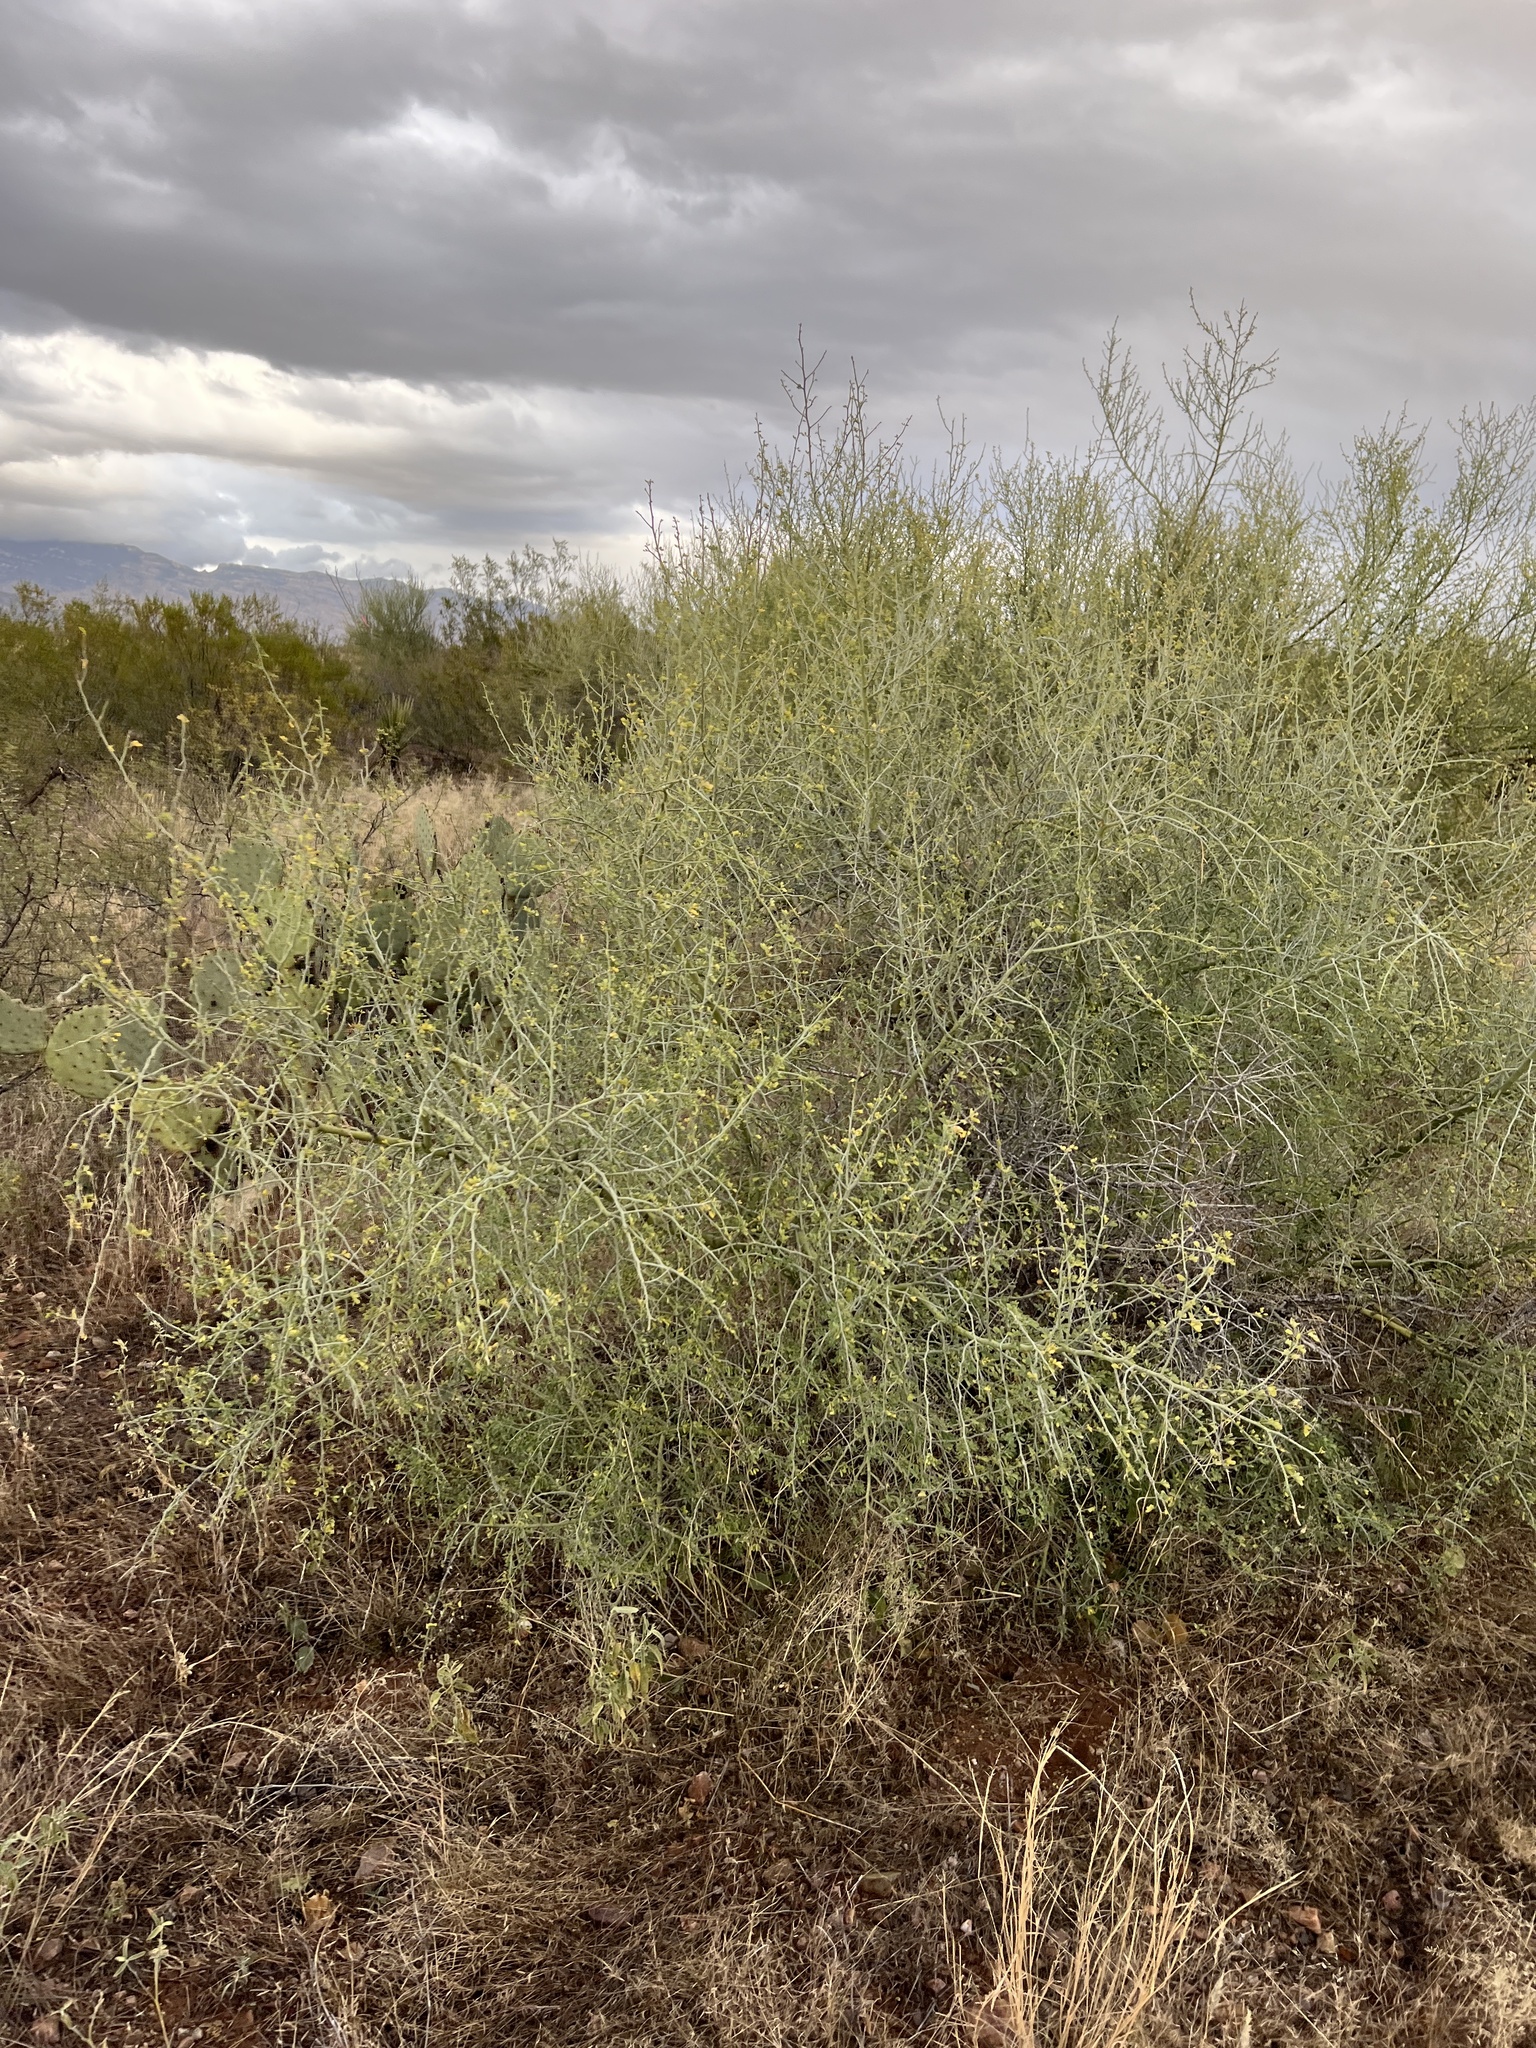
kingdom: Plantae
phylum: Tracheophyta
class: Magnoliopsida
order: Fabales
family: Fabaceae
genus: Parkinsonia
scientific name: Parkinsonia florida
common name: Blue paloverde
